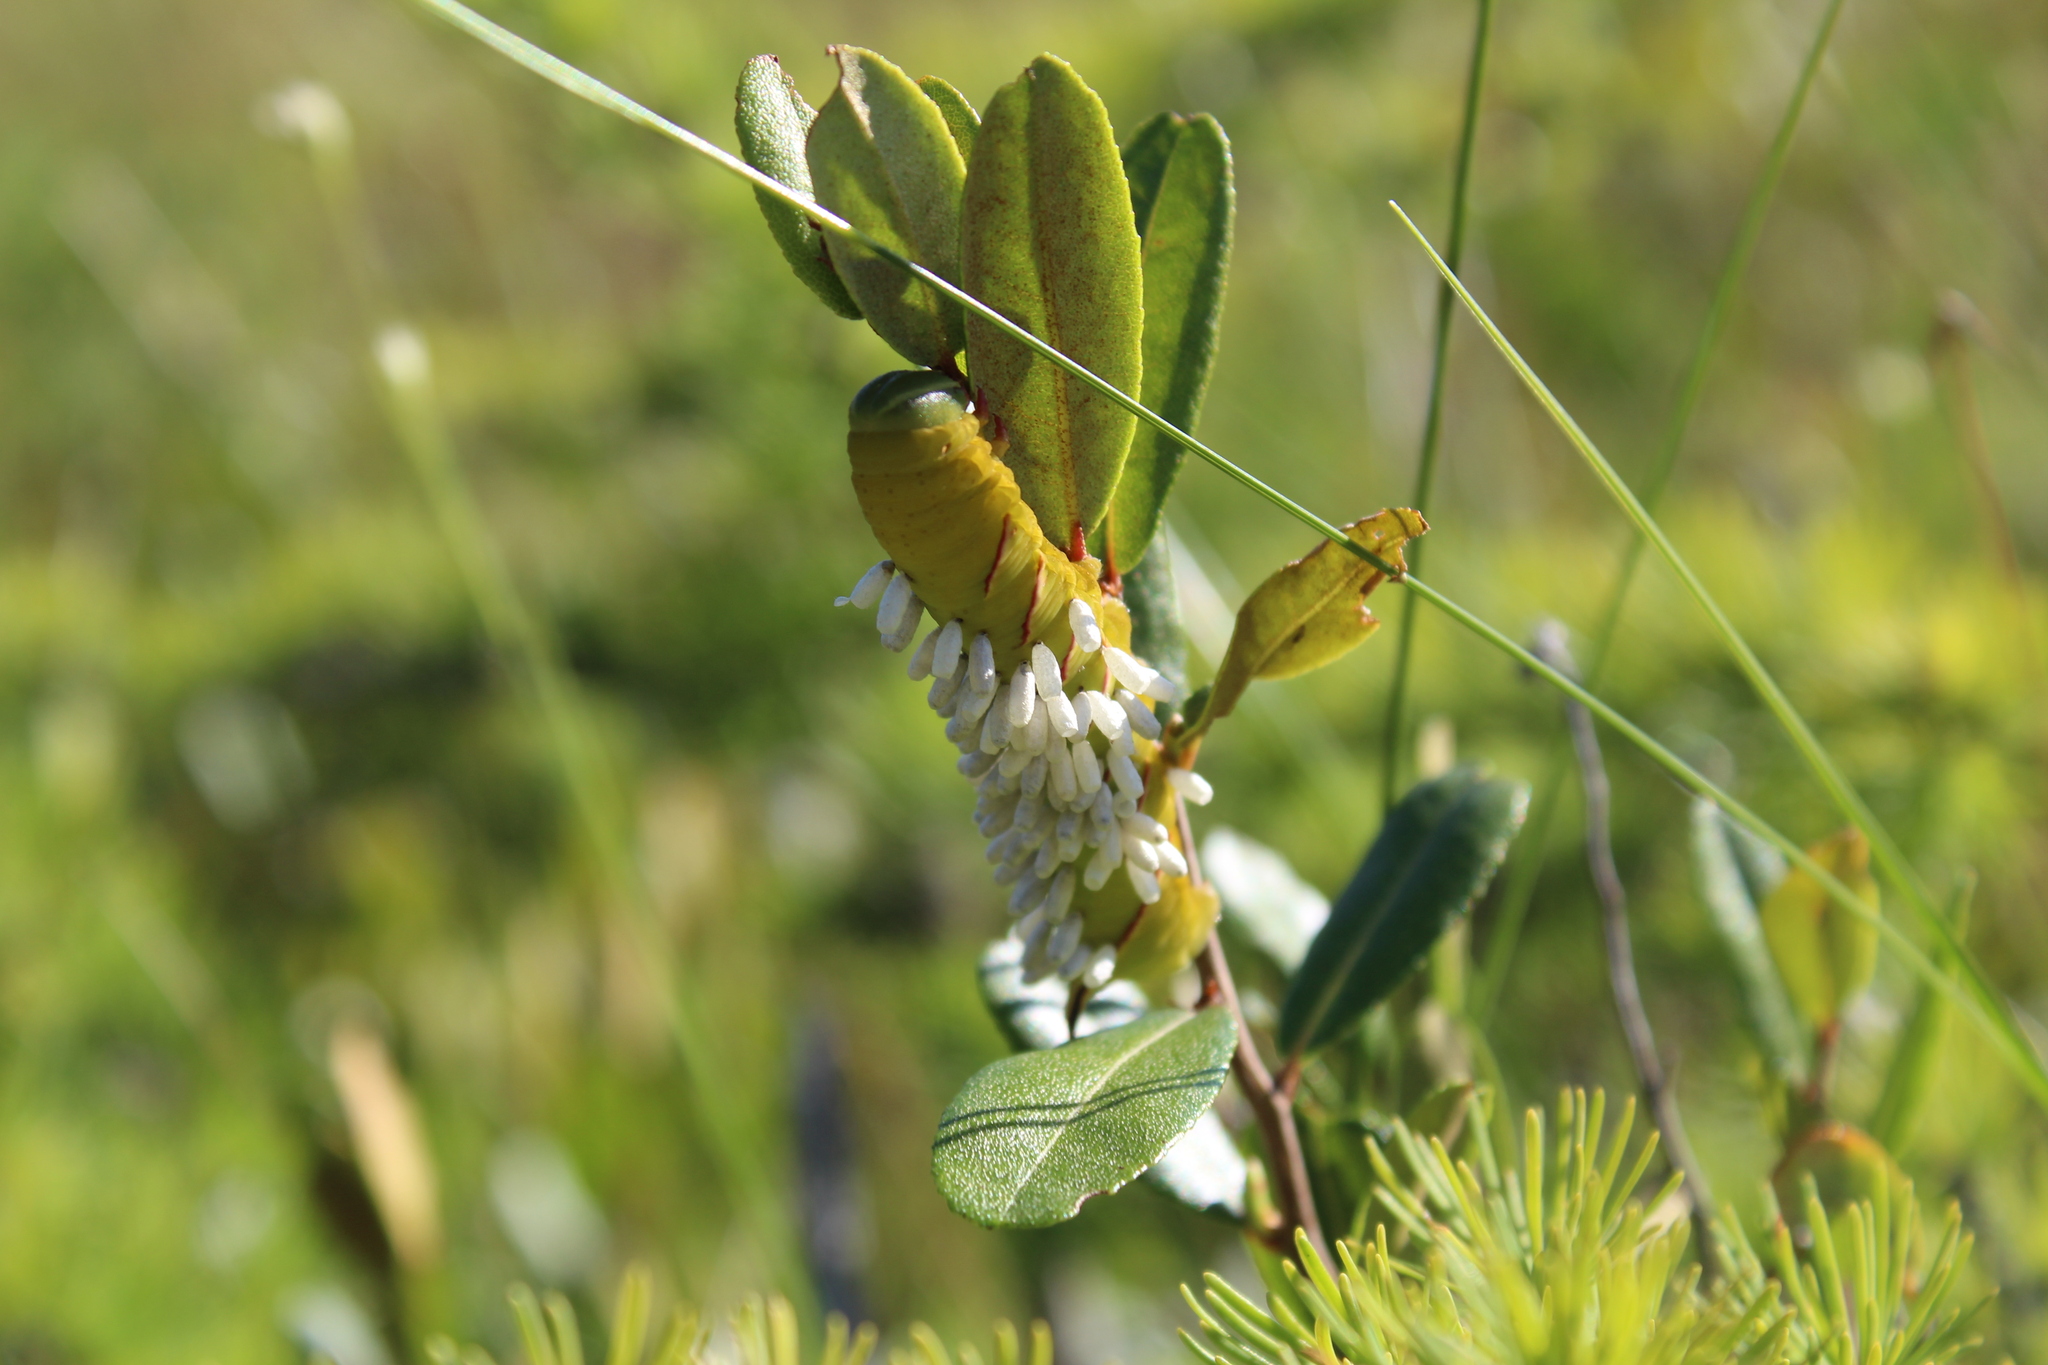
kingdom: Plantae
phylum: Tracheophyta
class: Magnoliopsida
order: Ericales
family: Ericaceae
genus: Chamaedaphne
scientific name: Chamaedaphne calyculata
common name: Leatherleaf
